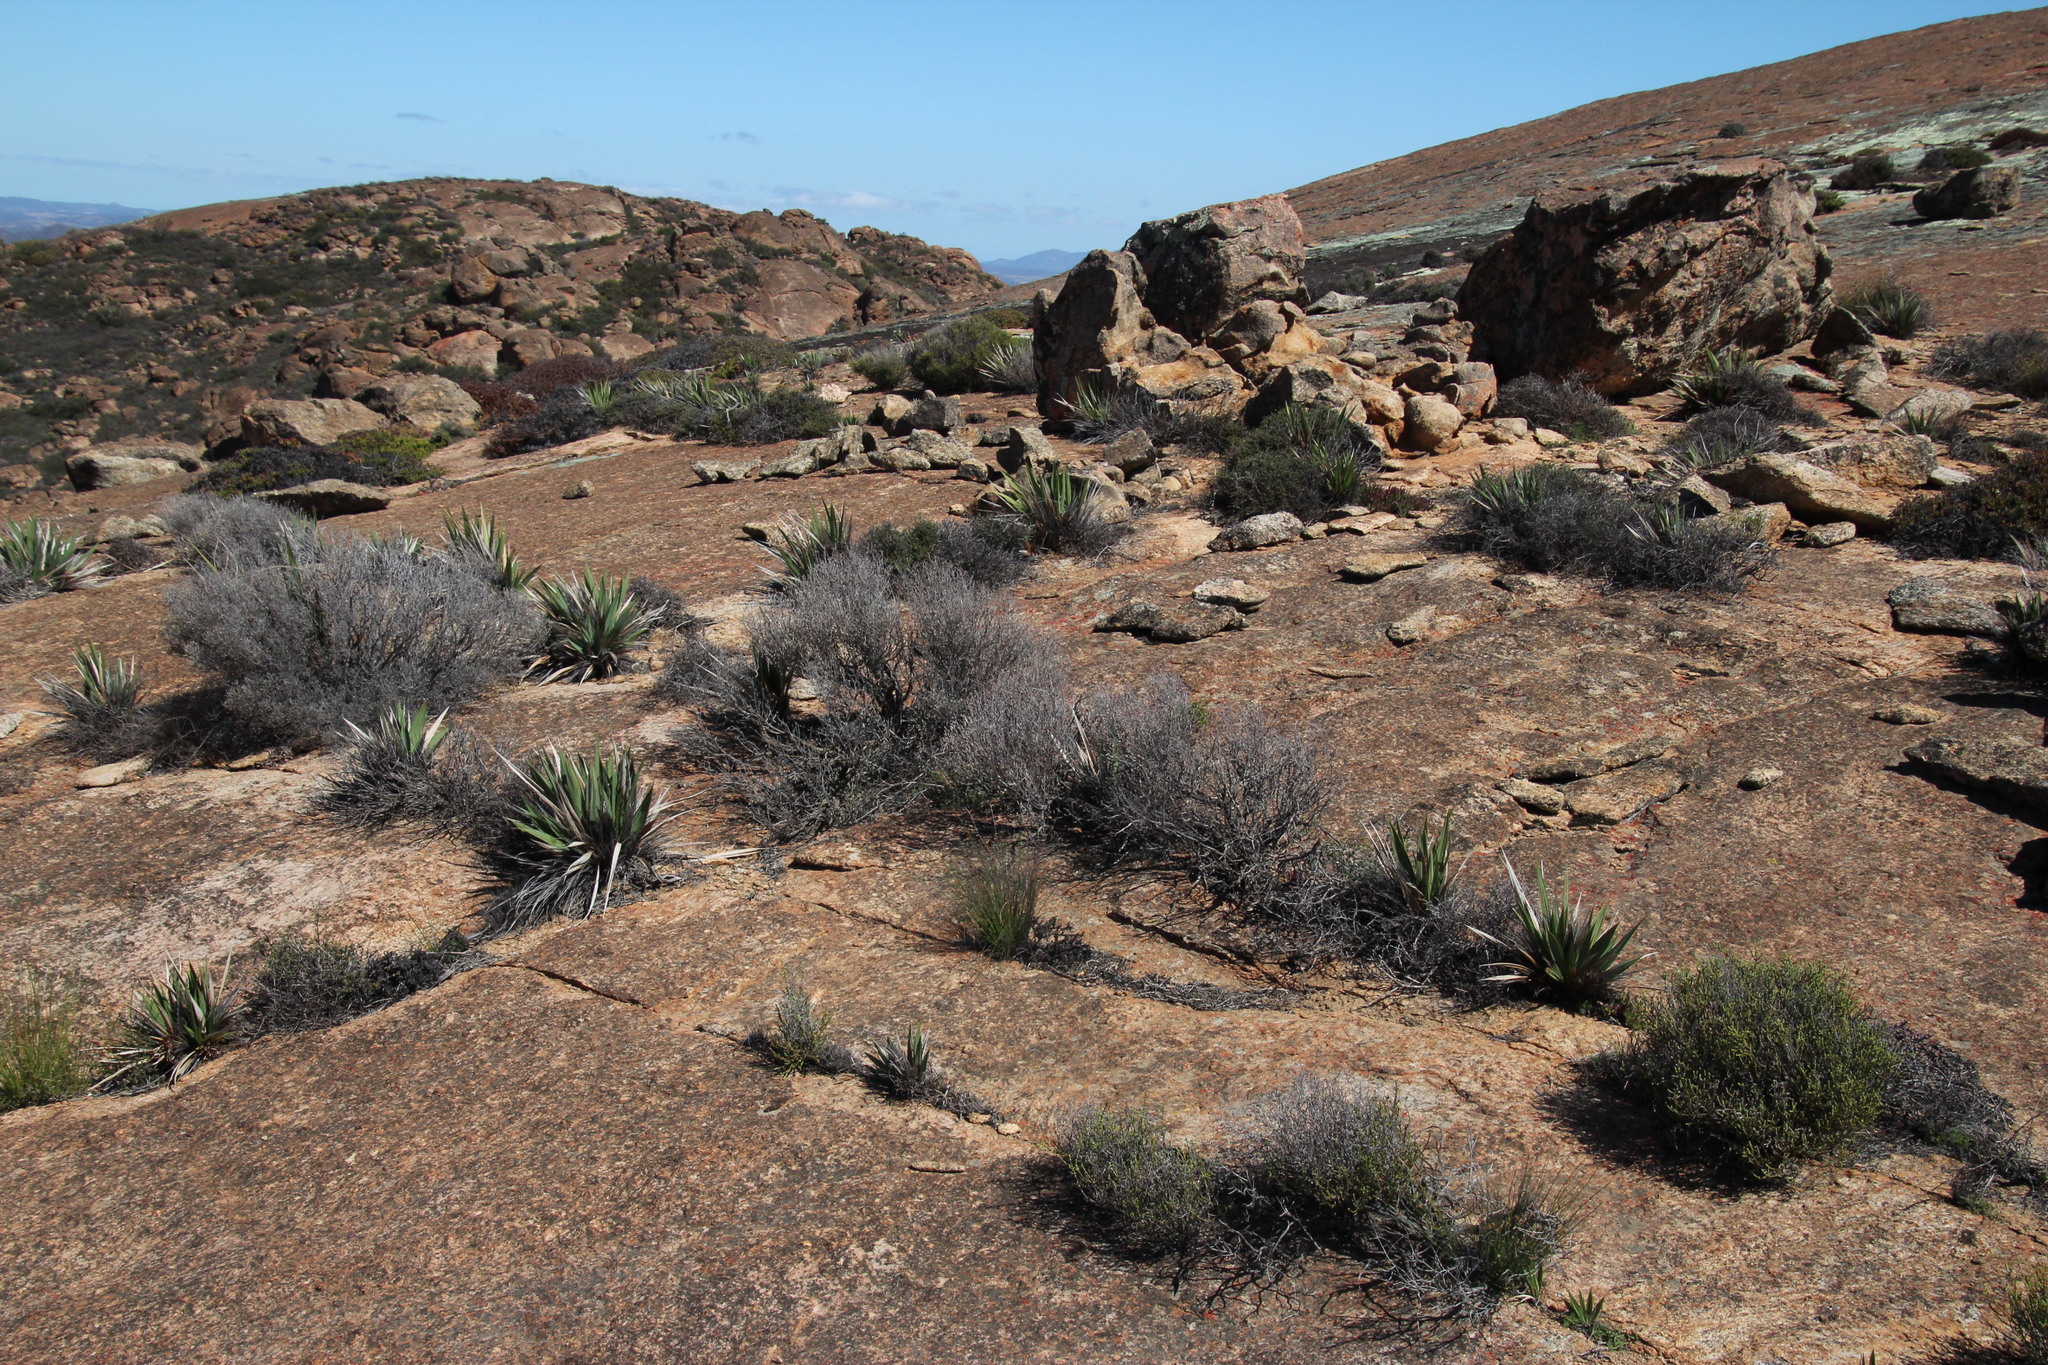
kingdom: Plantae
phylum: Tracheophyta
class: Liliopsida
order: Asparagales
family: Iridaceae
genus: Babiana
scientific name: Babiana dregei
